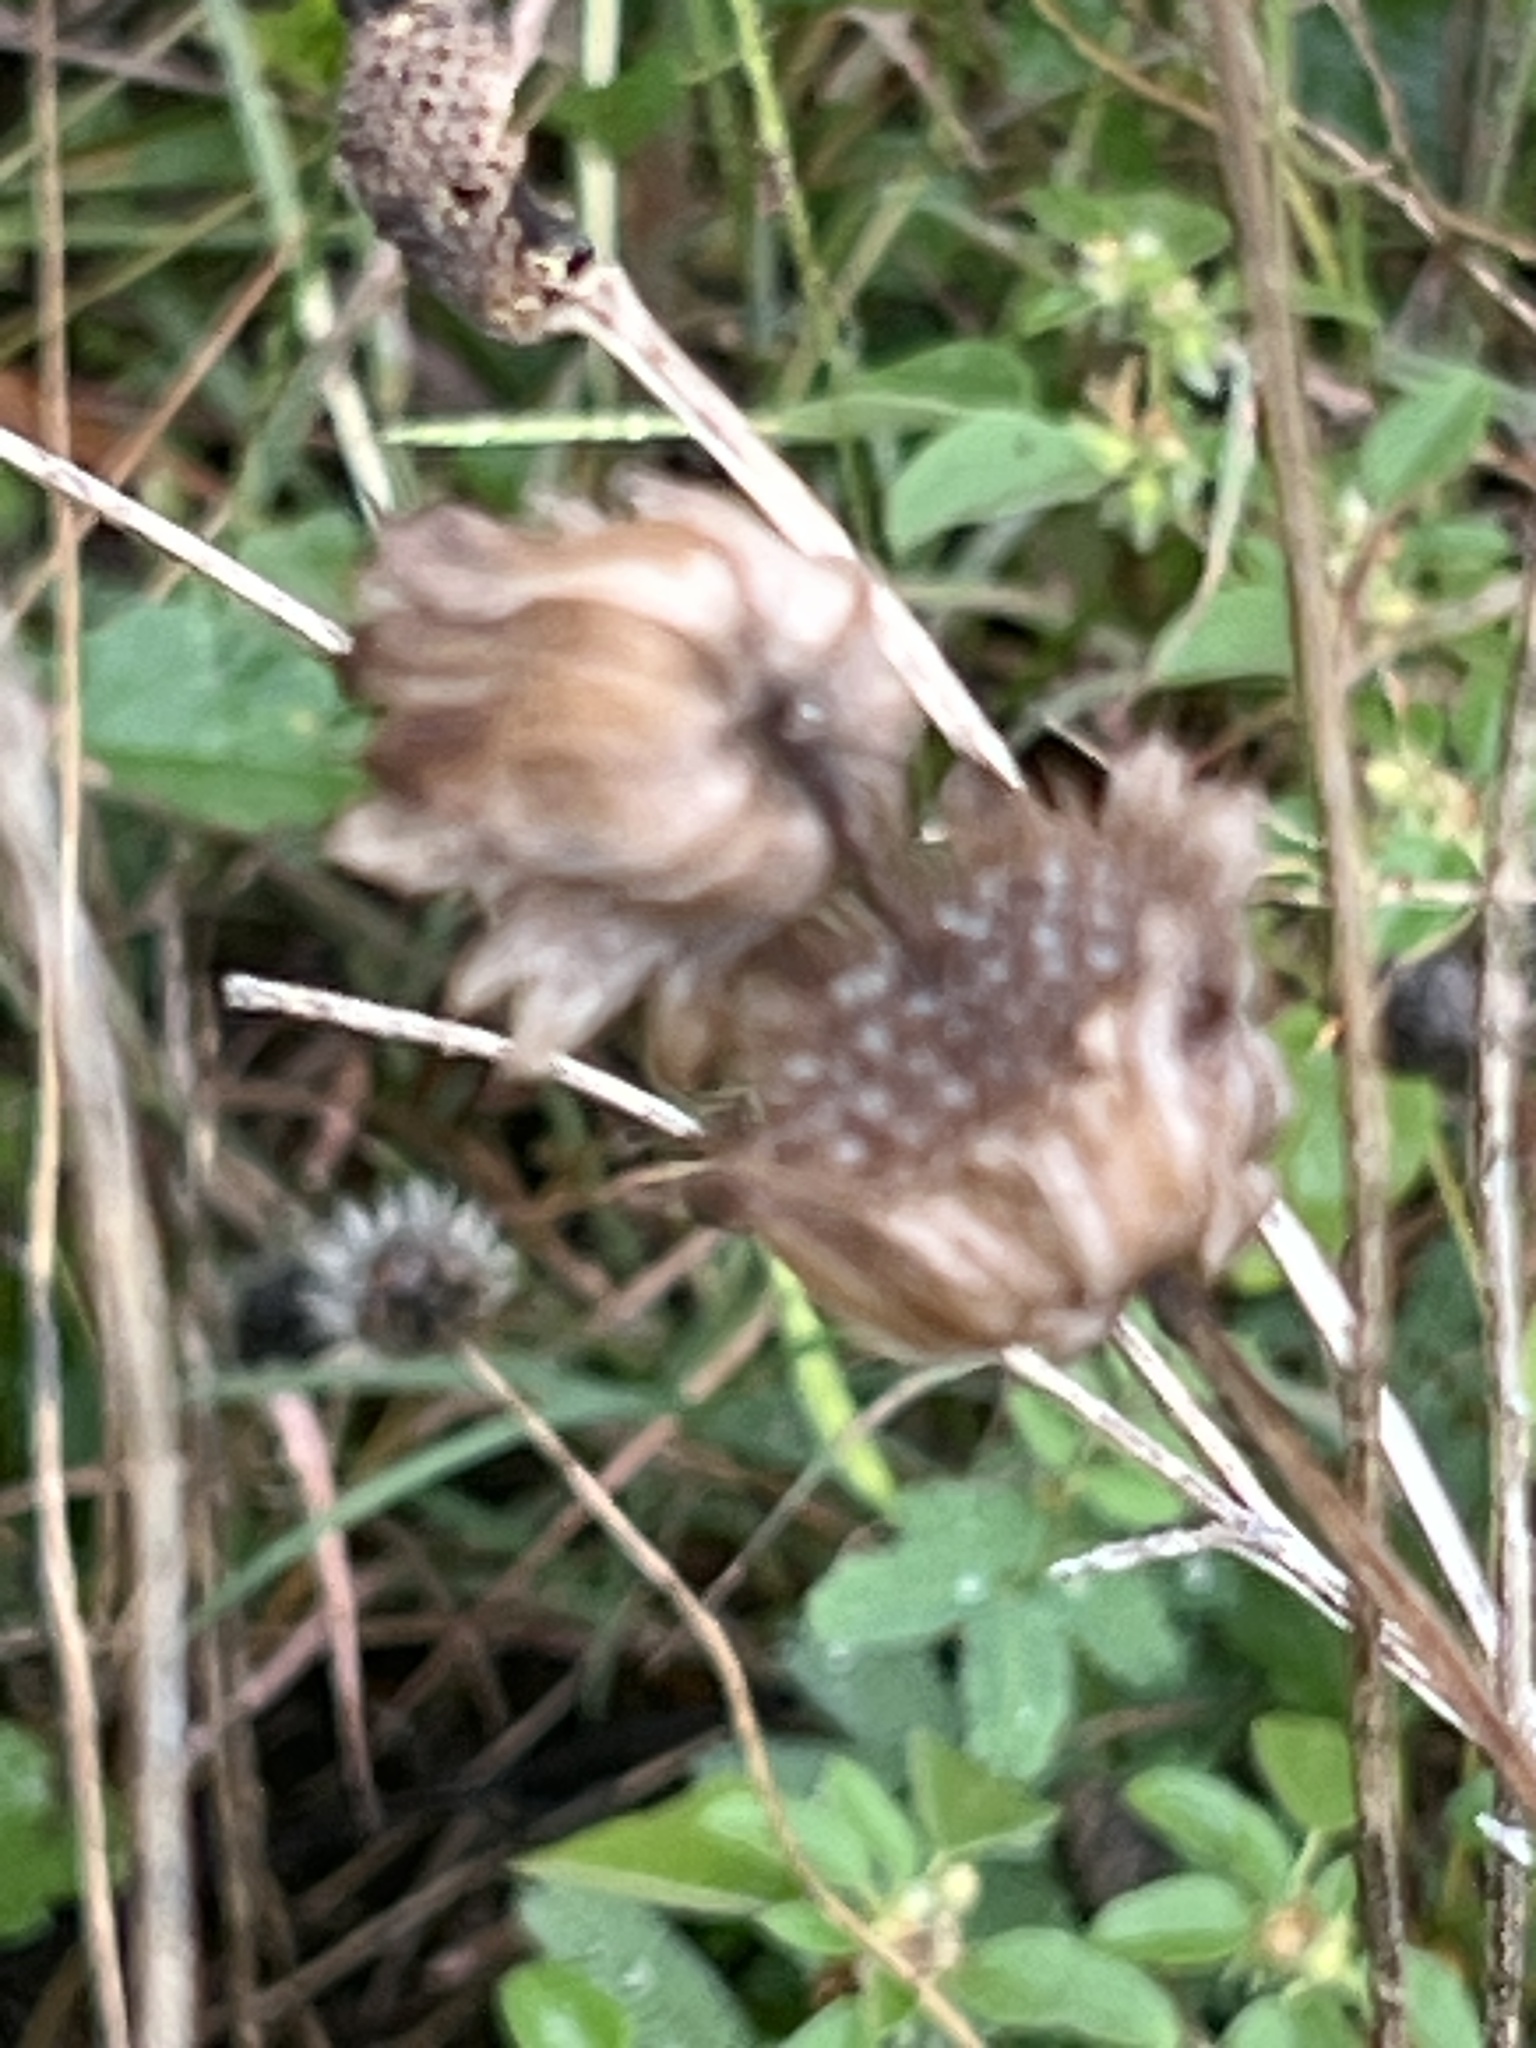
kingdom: Plantae
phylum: Tracheophyta
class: Magnoliopsida
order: Lamiales
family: Lamiaceae
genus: Monarda
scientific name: Monarda citriodora
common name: Lemon beebalm
